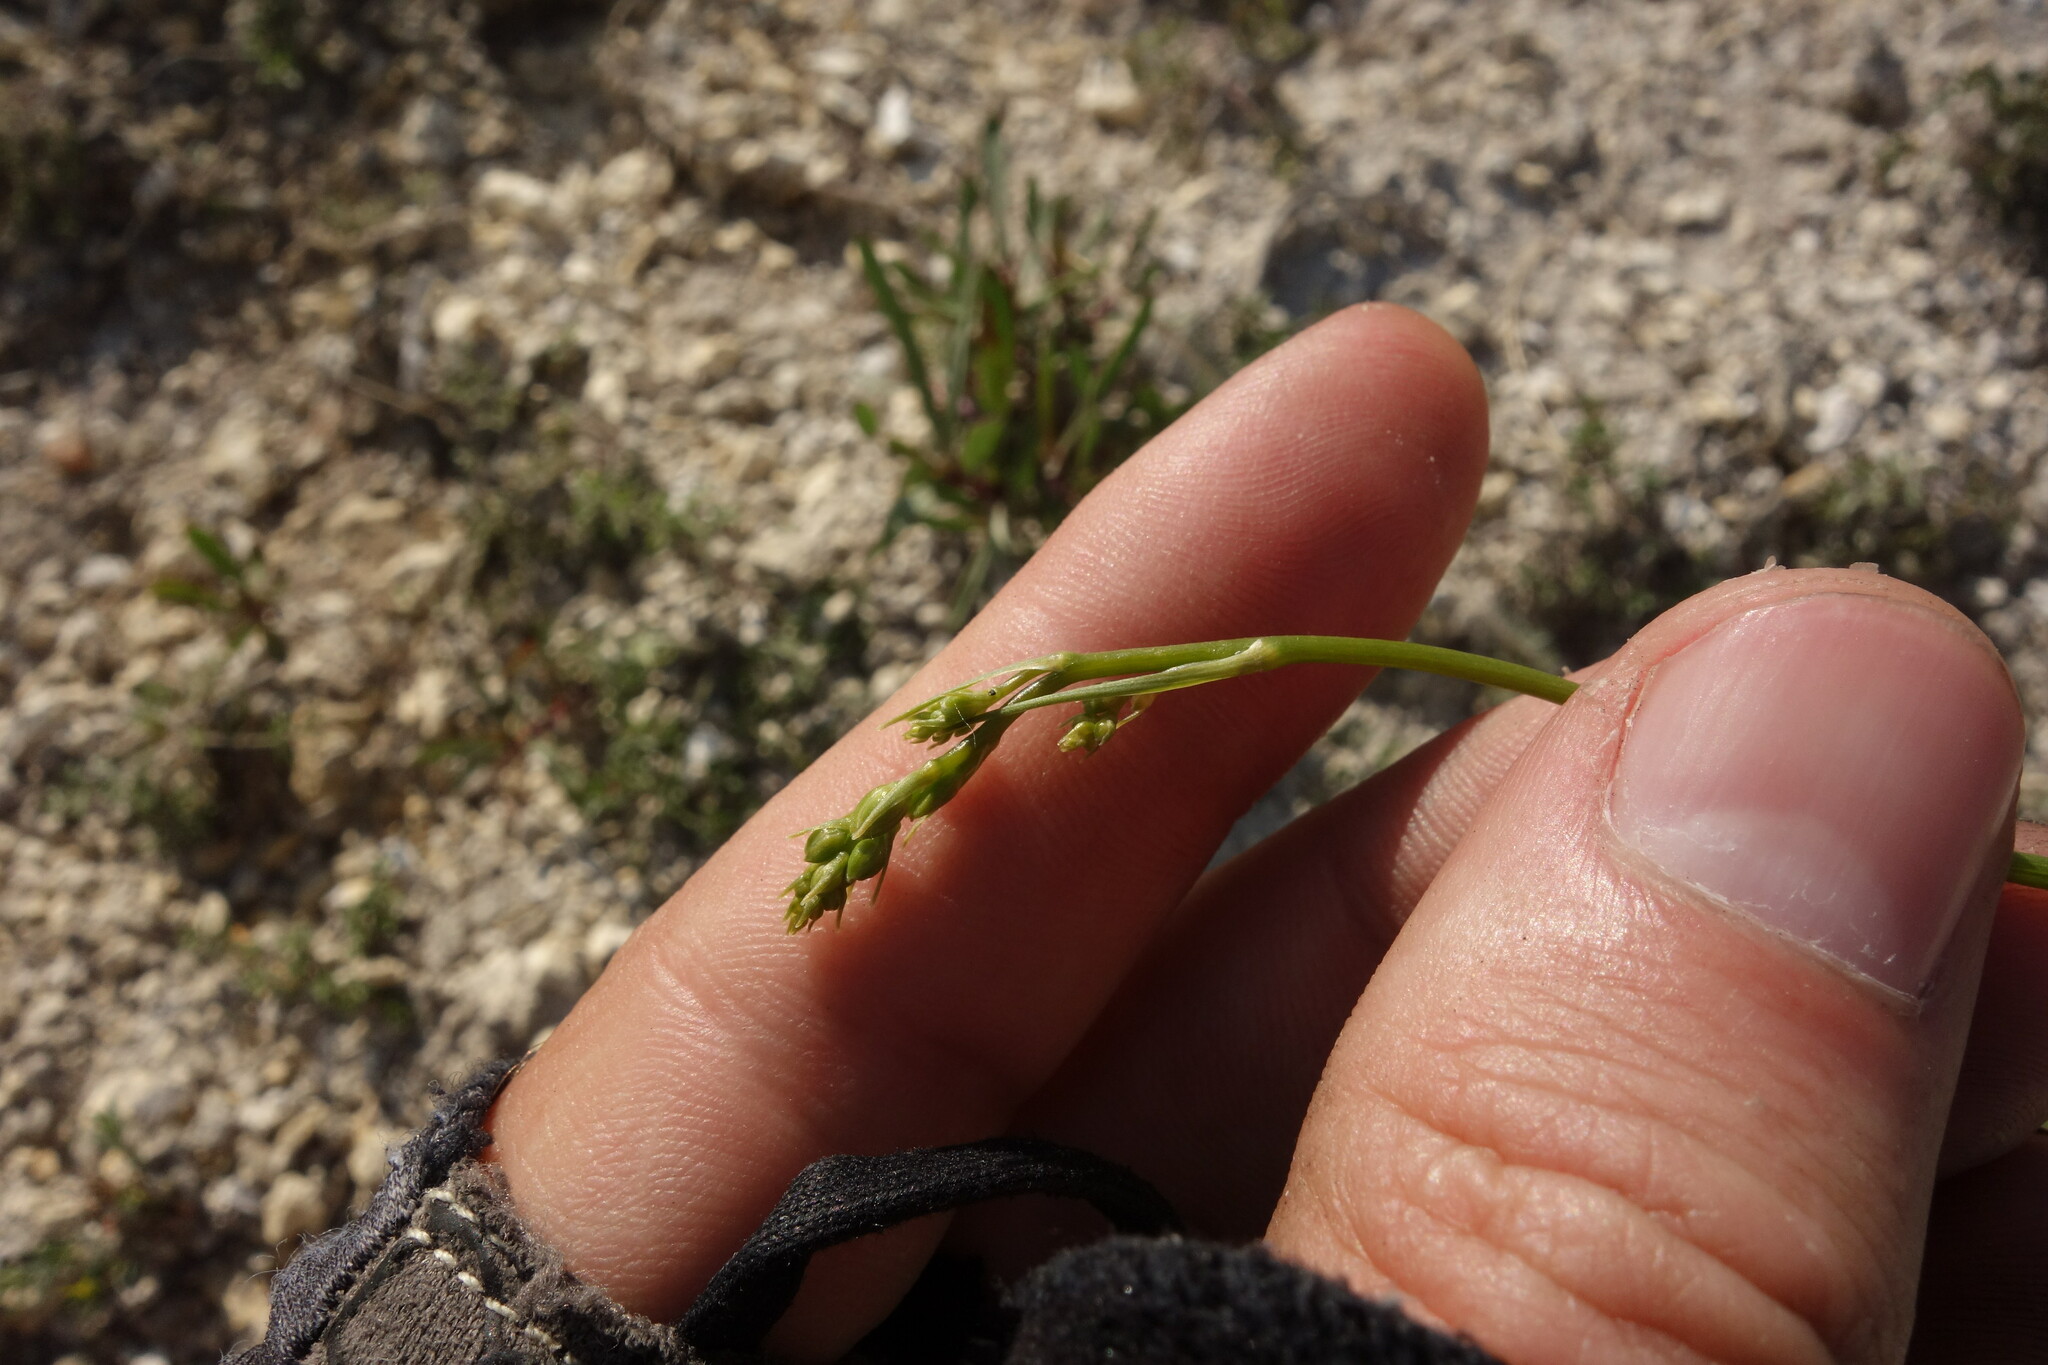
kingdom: Plantae
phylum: Tracheophyta
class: Liliopsida
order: Asparagales
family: Asparagaceae
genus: Anthericum
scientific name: Anthericum ramosum
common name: Branched st. bernard's-lily
